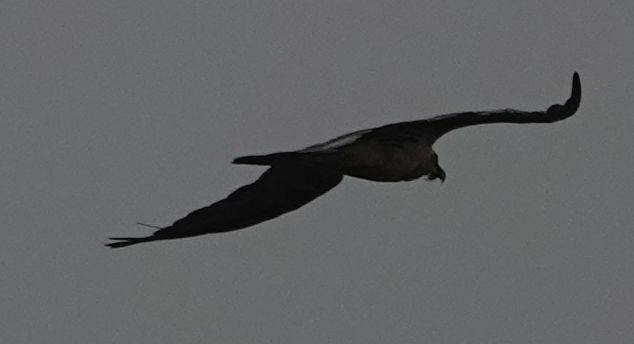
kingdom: Animalia
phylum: Chordata
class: Aves
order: Accipitriformes
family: Accipitridae
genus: Gypaetus
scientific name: Gypaetus barbatus
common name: Bearded vulture
